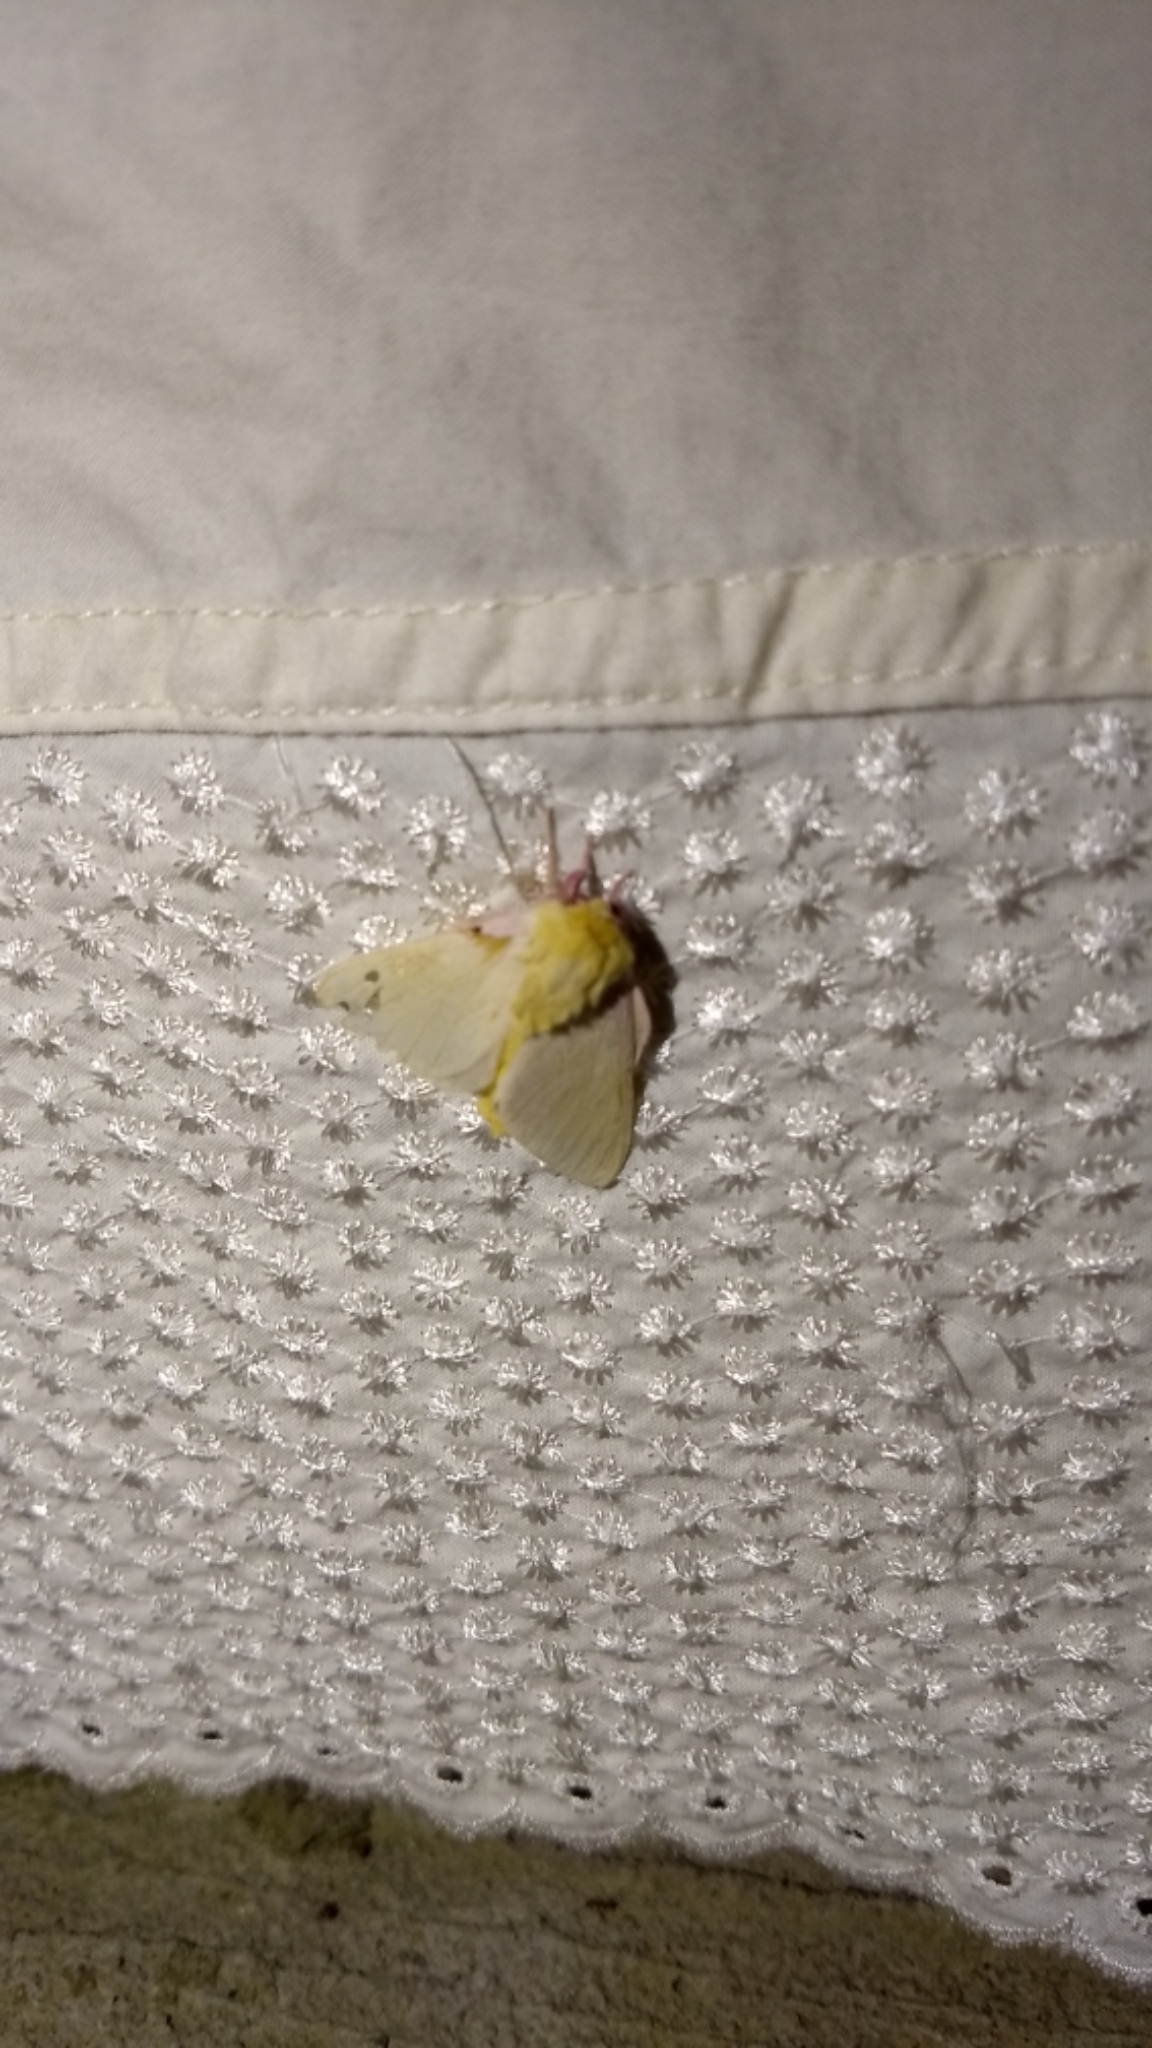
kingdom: Animalia
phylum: Arthropoda
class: Insecta
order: Lepidoptera
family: Saturniidae
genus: Dryocampa
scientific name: Dryocampa rubicunda
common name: Rosy maple moth
